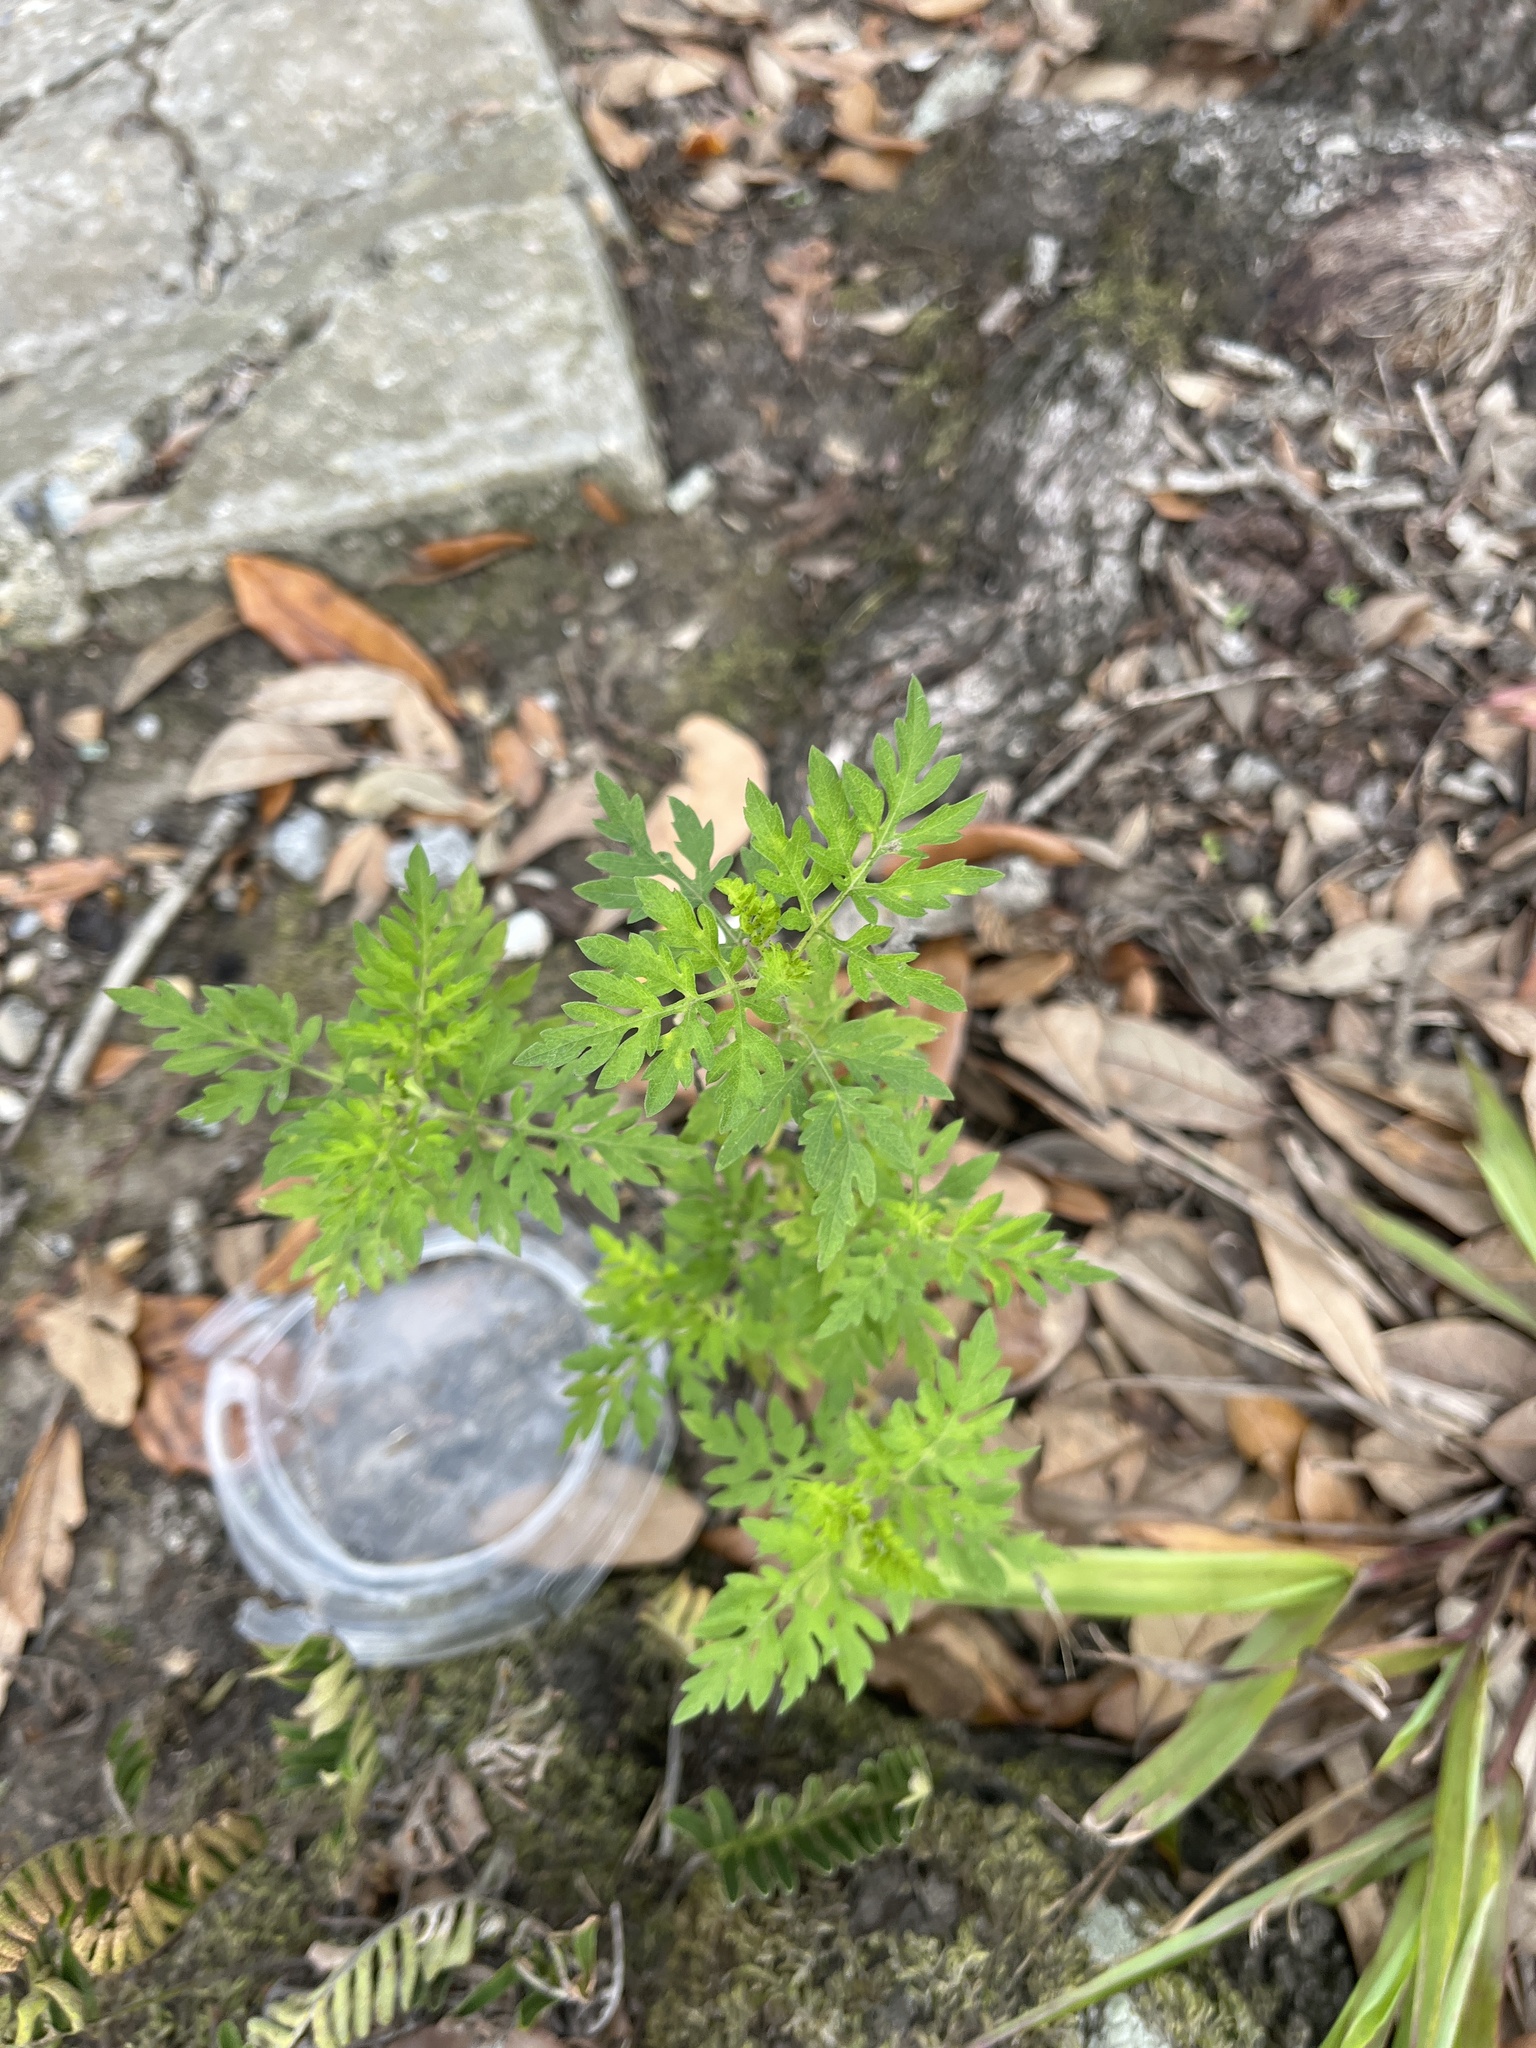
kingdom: Plantae
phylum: Tracheophyta
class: Magnoliopsida
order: Asterales
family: Asteraceae
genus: Ambrosia
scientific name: Ambrosia artemisiifolia
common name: Annual ragweed
